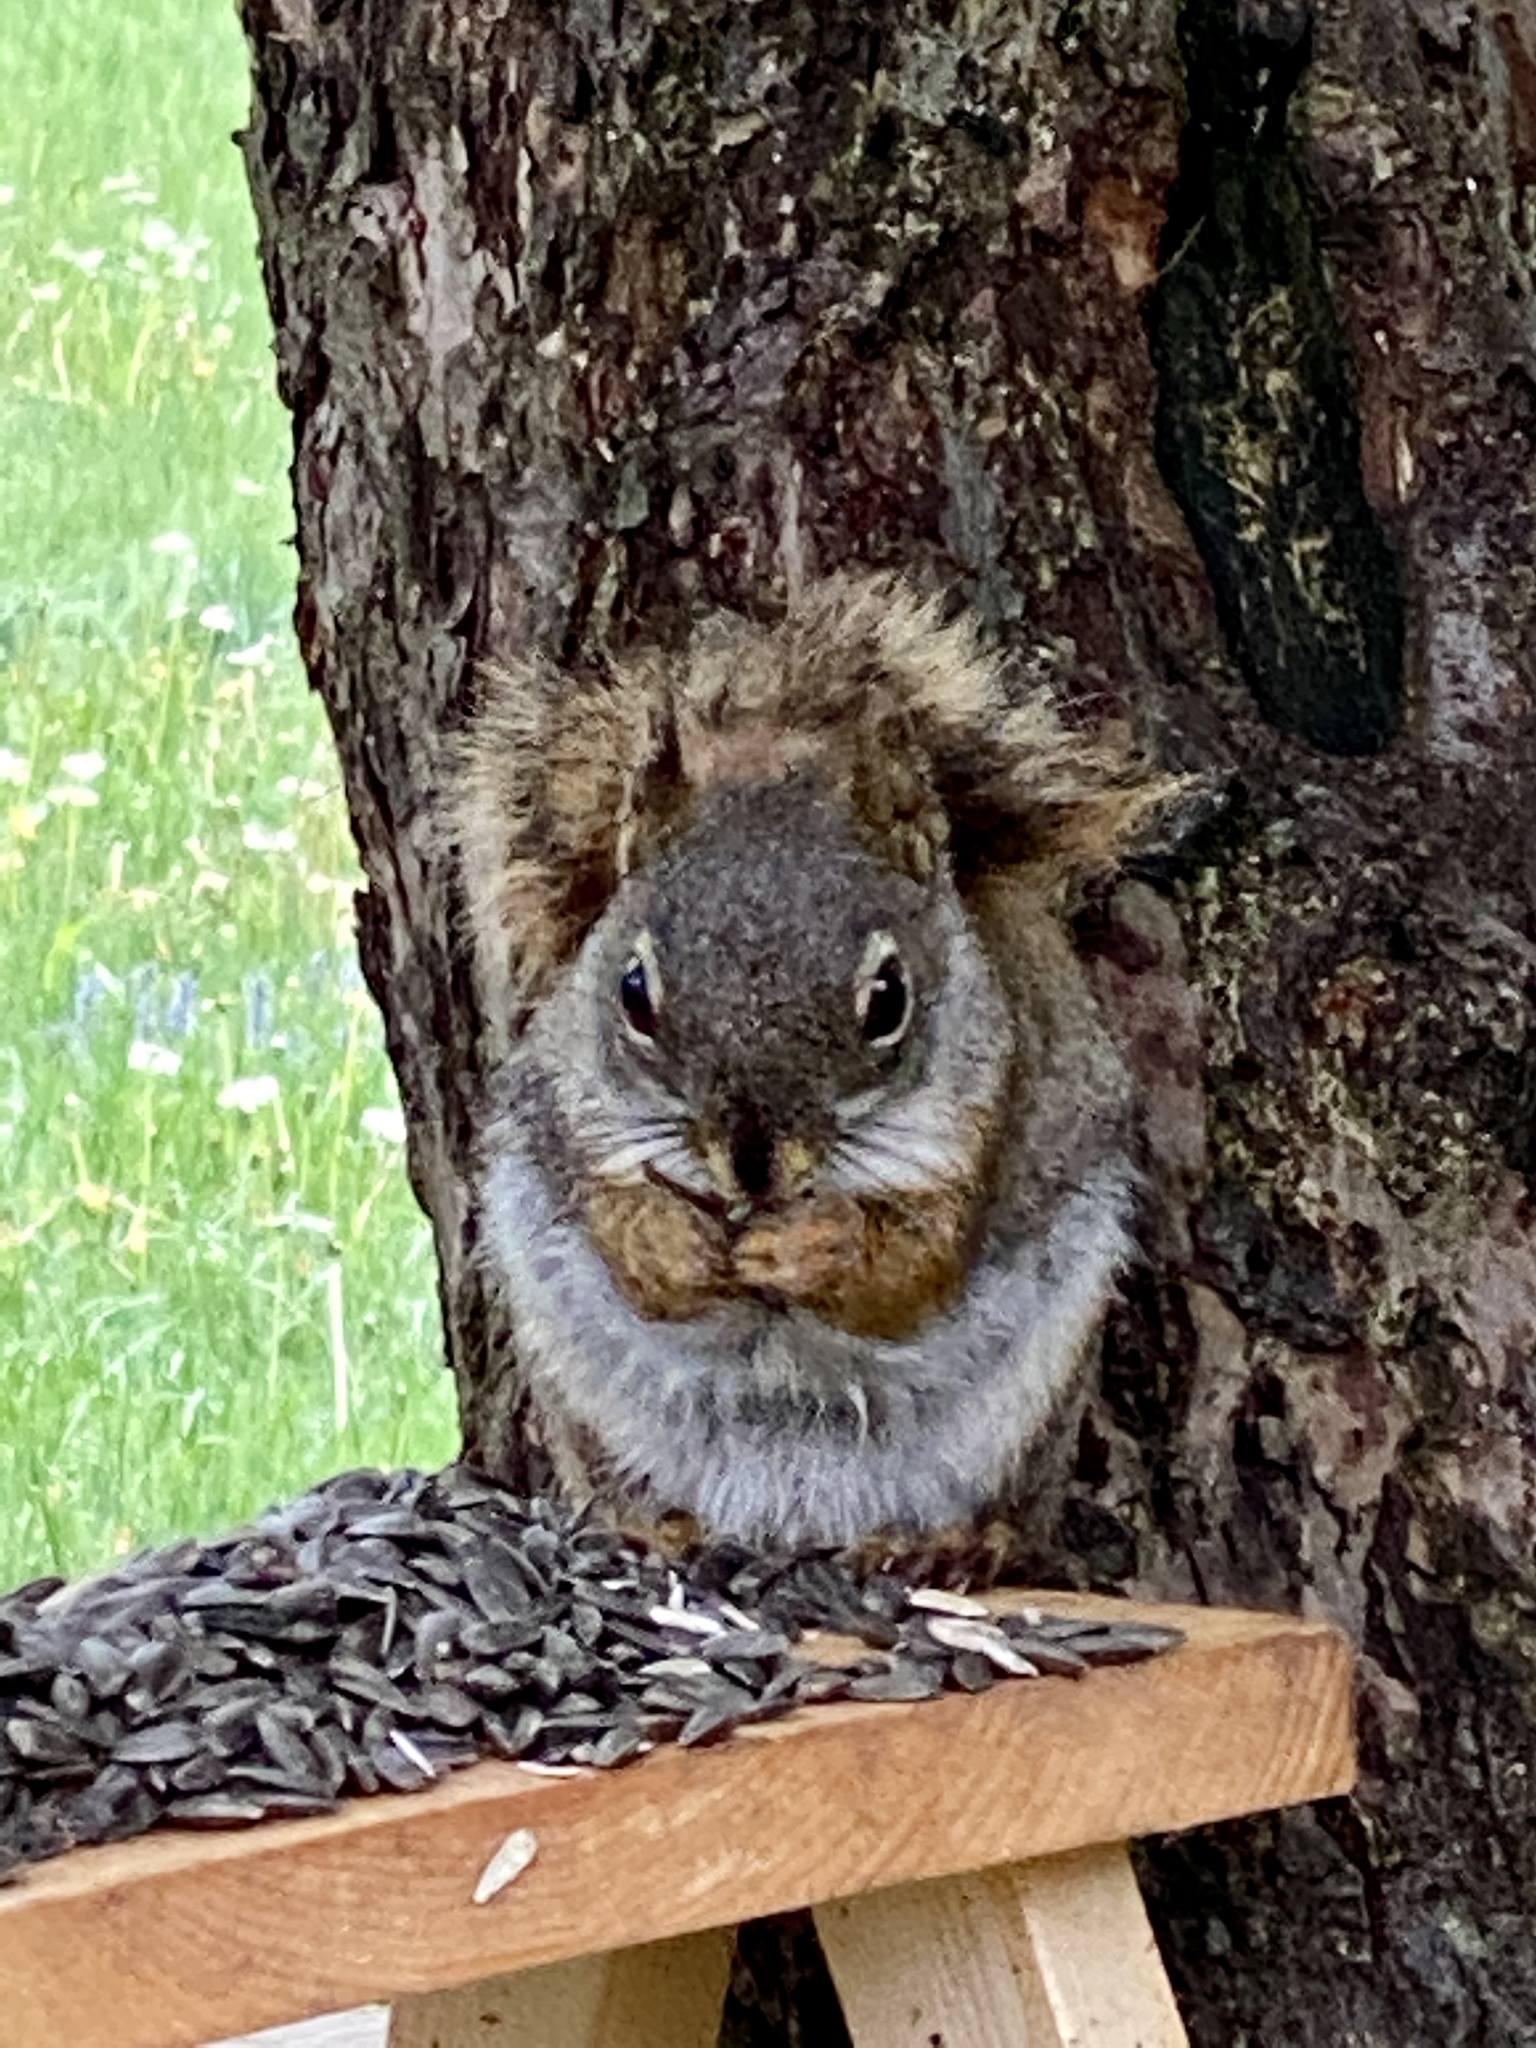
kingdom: Animalia
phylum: Chordata
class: Mammalia
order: Rodentia
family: Sciuridae
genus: Tamiasciurus
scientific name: Tamiasciurus hudsonicus
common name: Red squirrel
